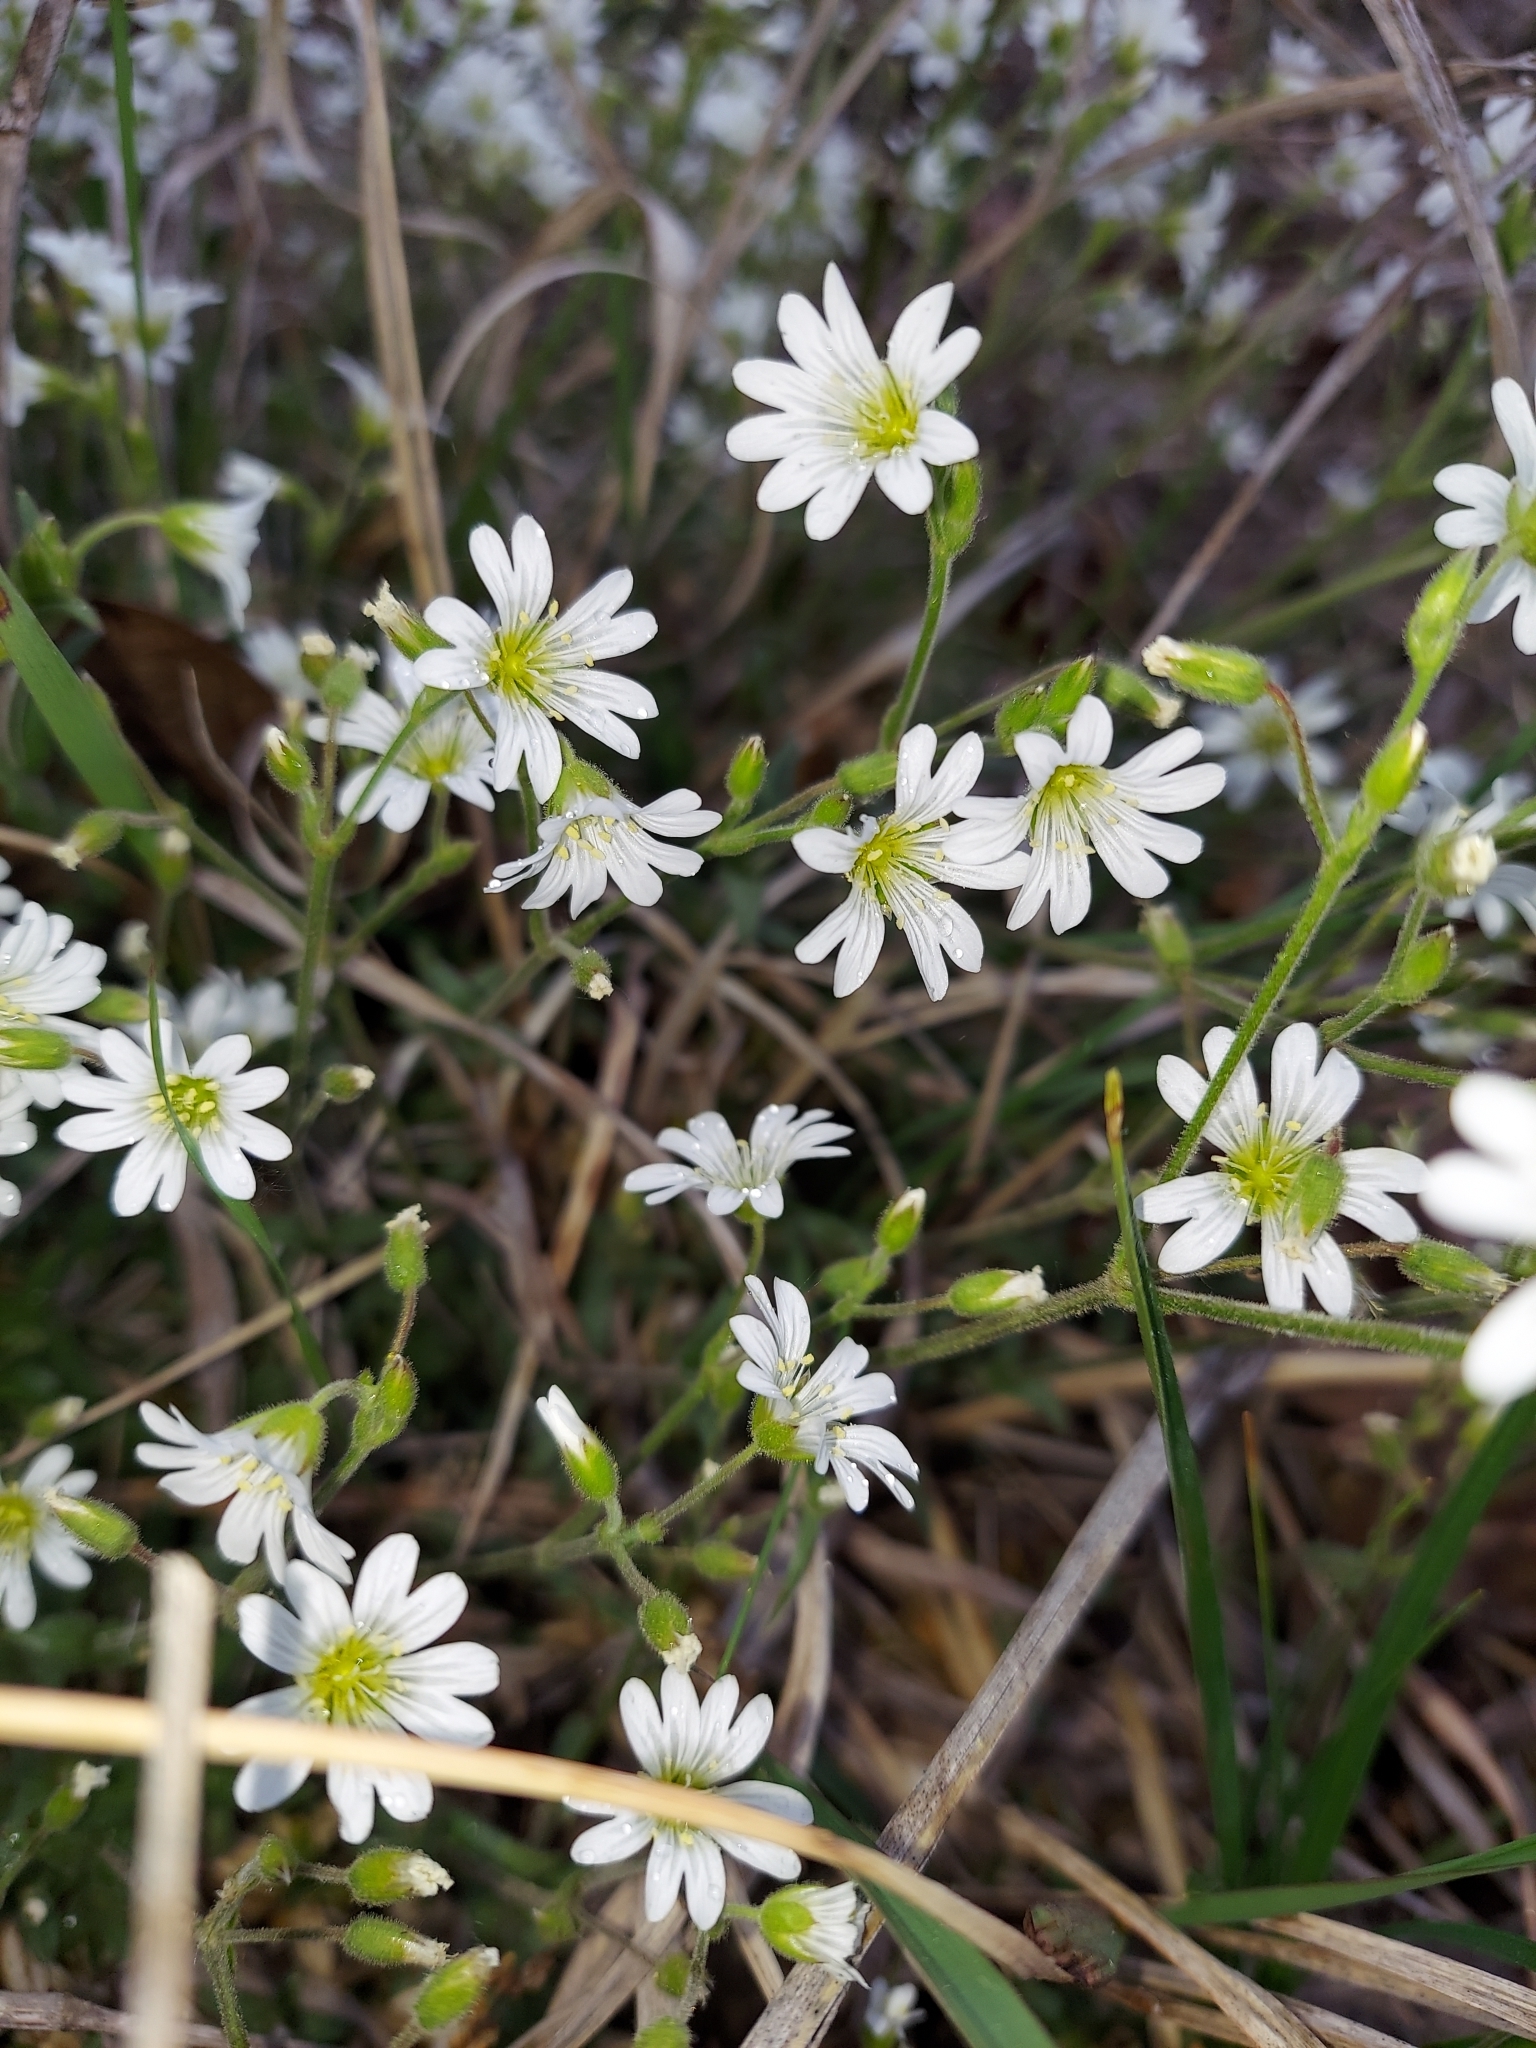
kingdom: Plantae
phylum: Tracheophyta
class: Magnoliopsida
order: Caryophyllales
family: Caryophyllaceae
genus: Cerastium
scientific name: Cerastium velutinum
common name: Barren chickweed
